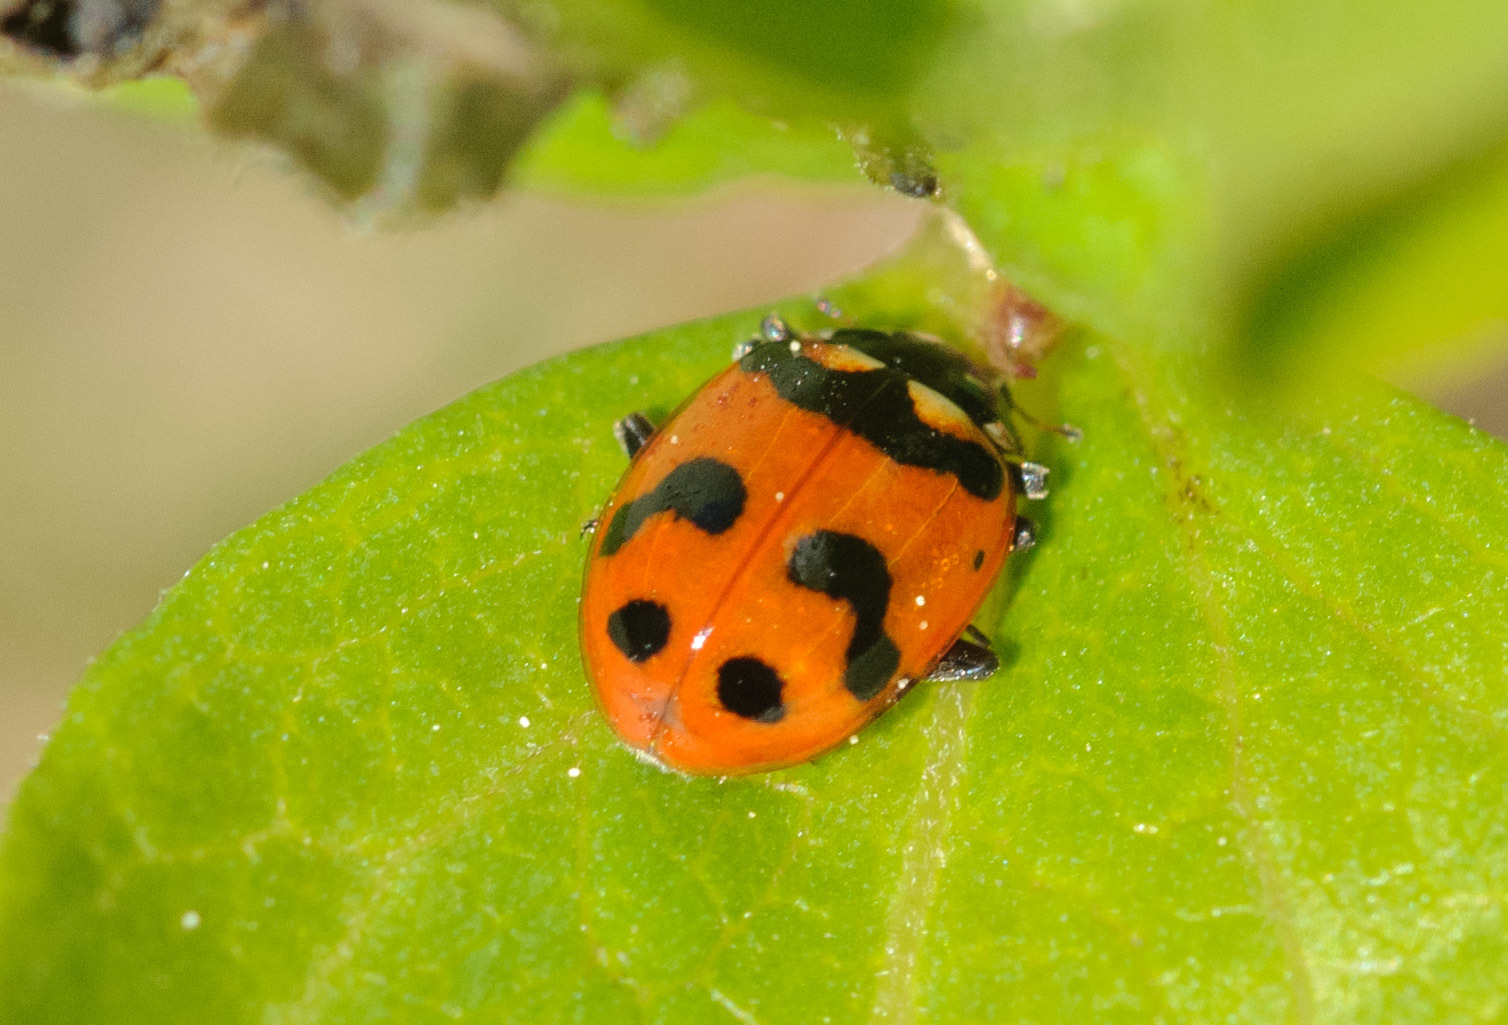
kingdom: Animalia
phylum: Arthropoda
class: Insecta
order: Coleoptera
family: Coccinellidae
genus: Hippodamia
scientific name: Hippodamia caseyi
